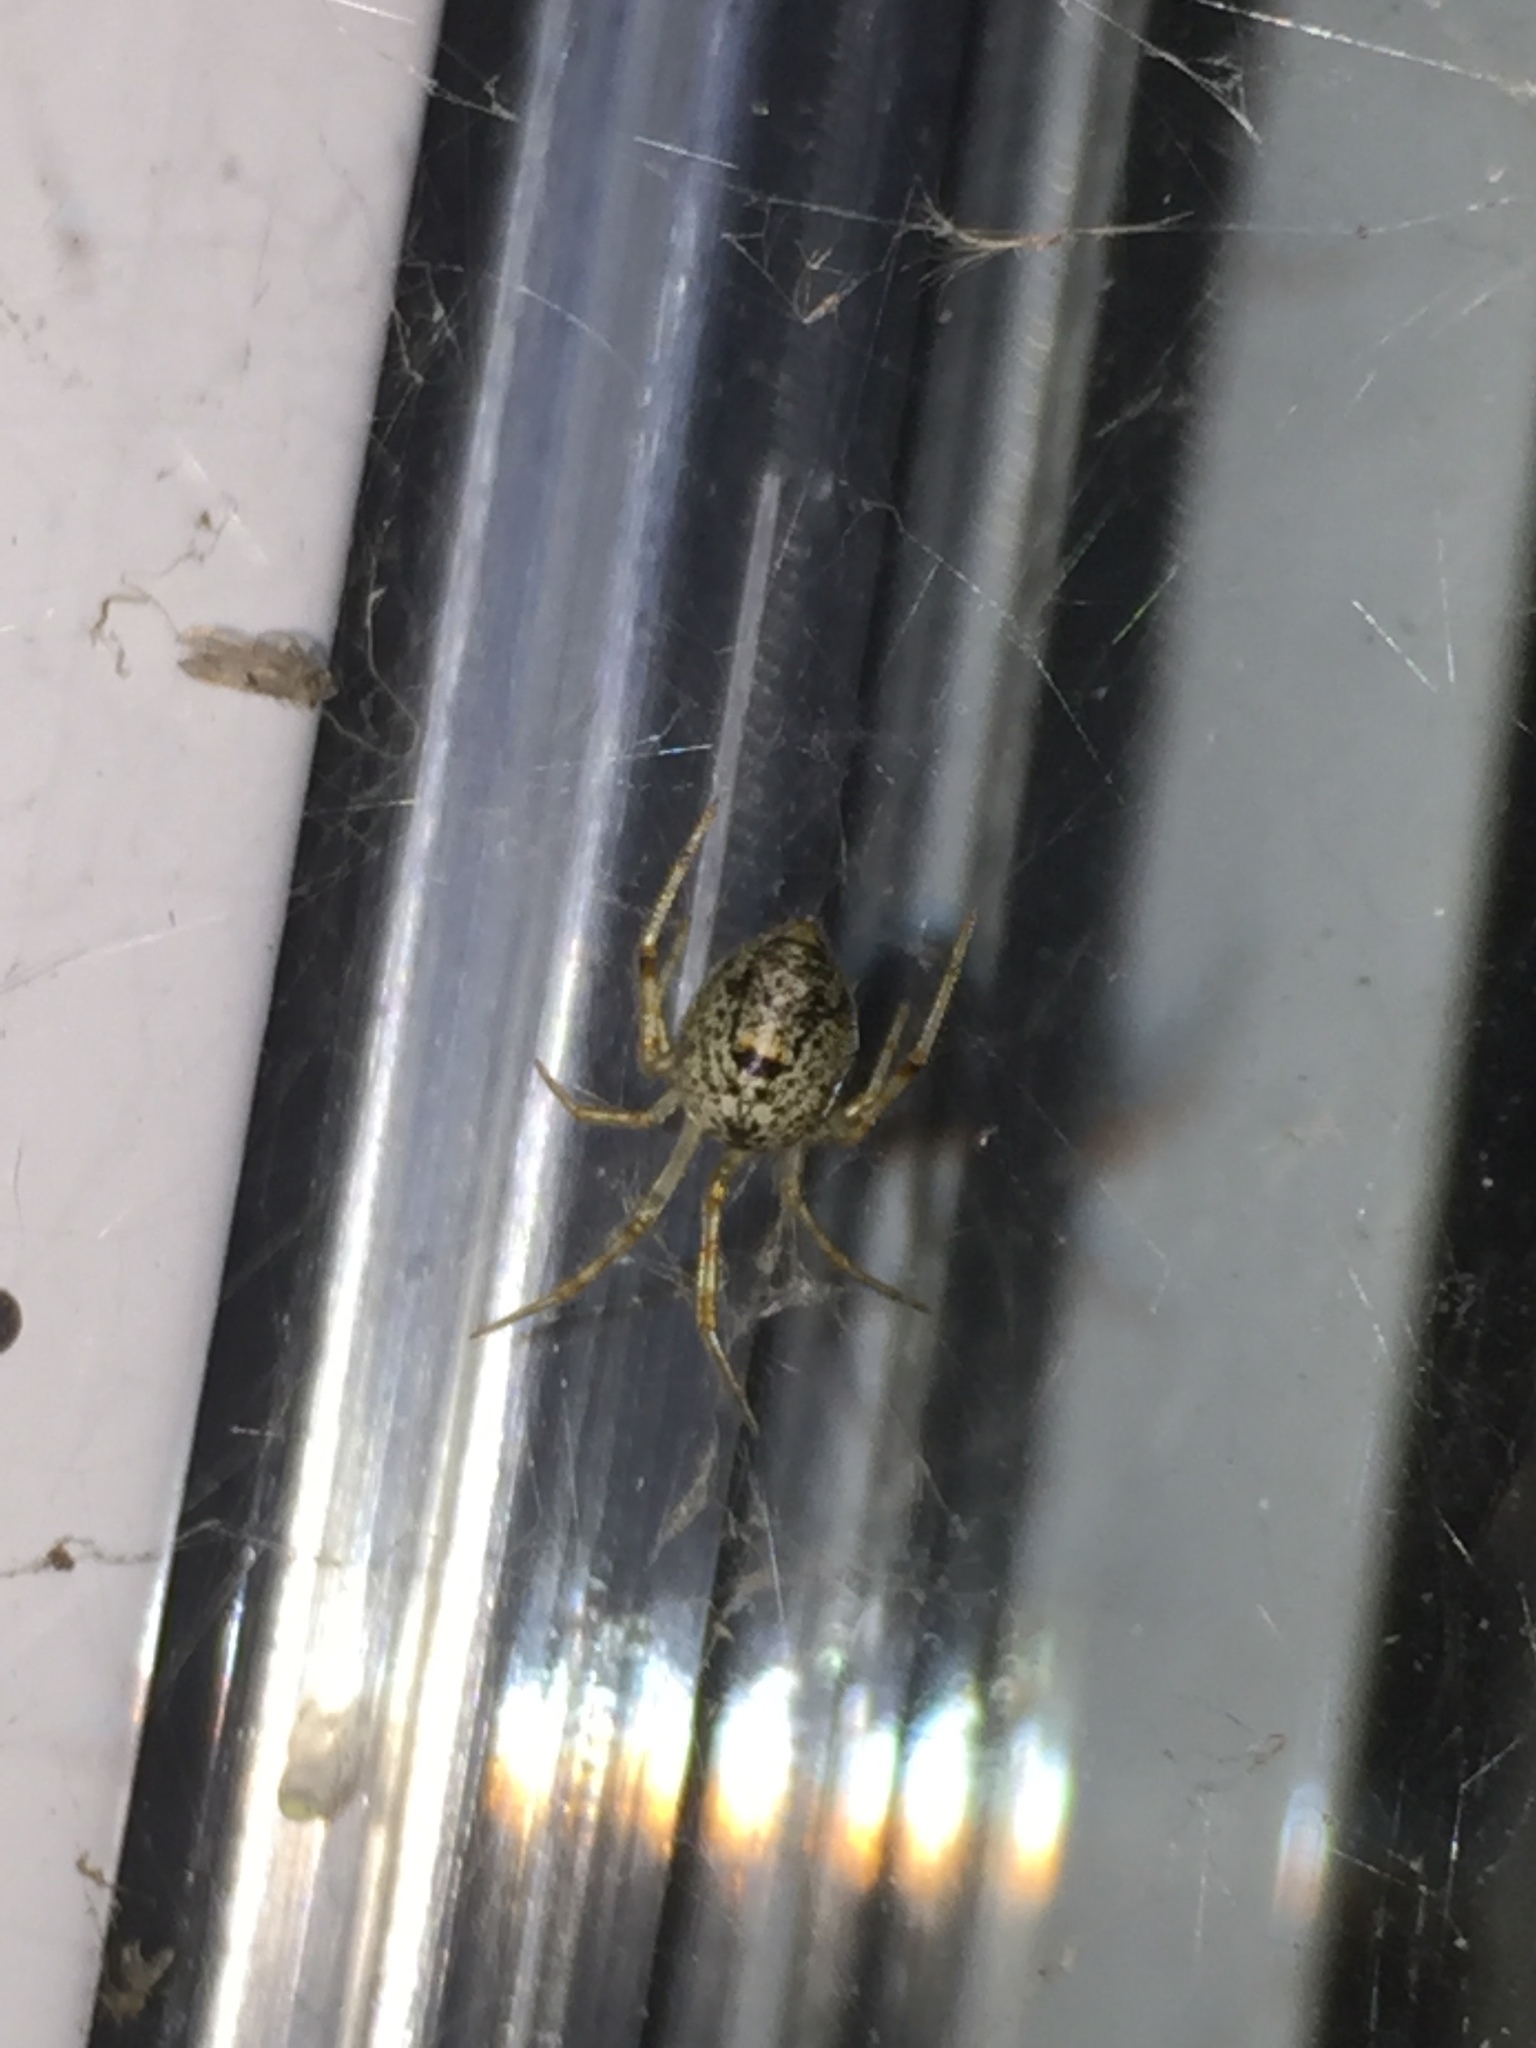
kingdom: Animalia
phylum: Arthropoda
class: Arachnida
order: Araneae
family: Theridiidae
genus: Parasteatoda
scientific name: Parasteatoda tepidariorum
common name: Common house spider
